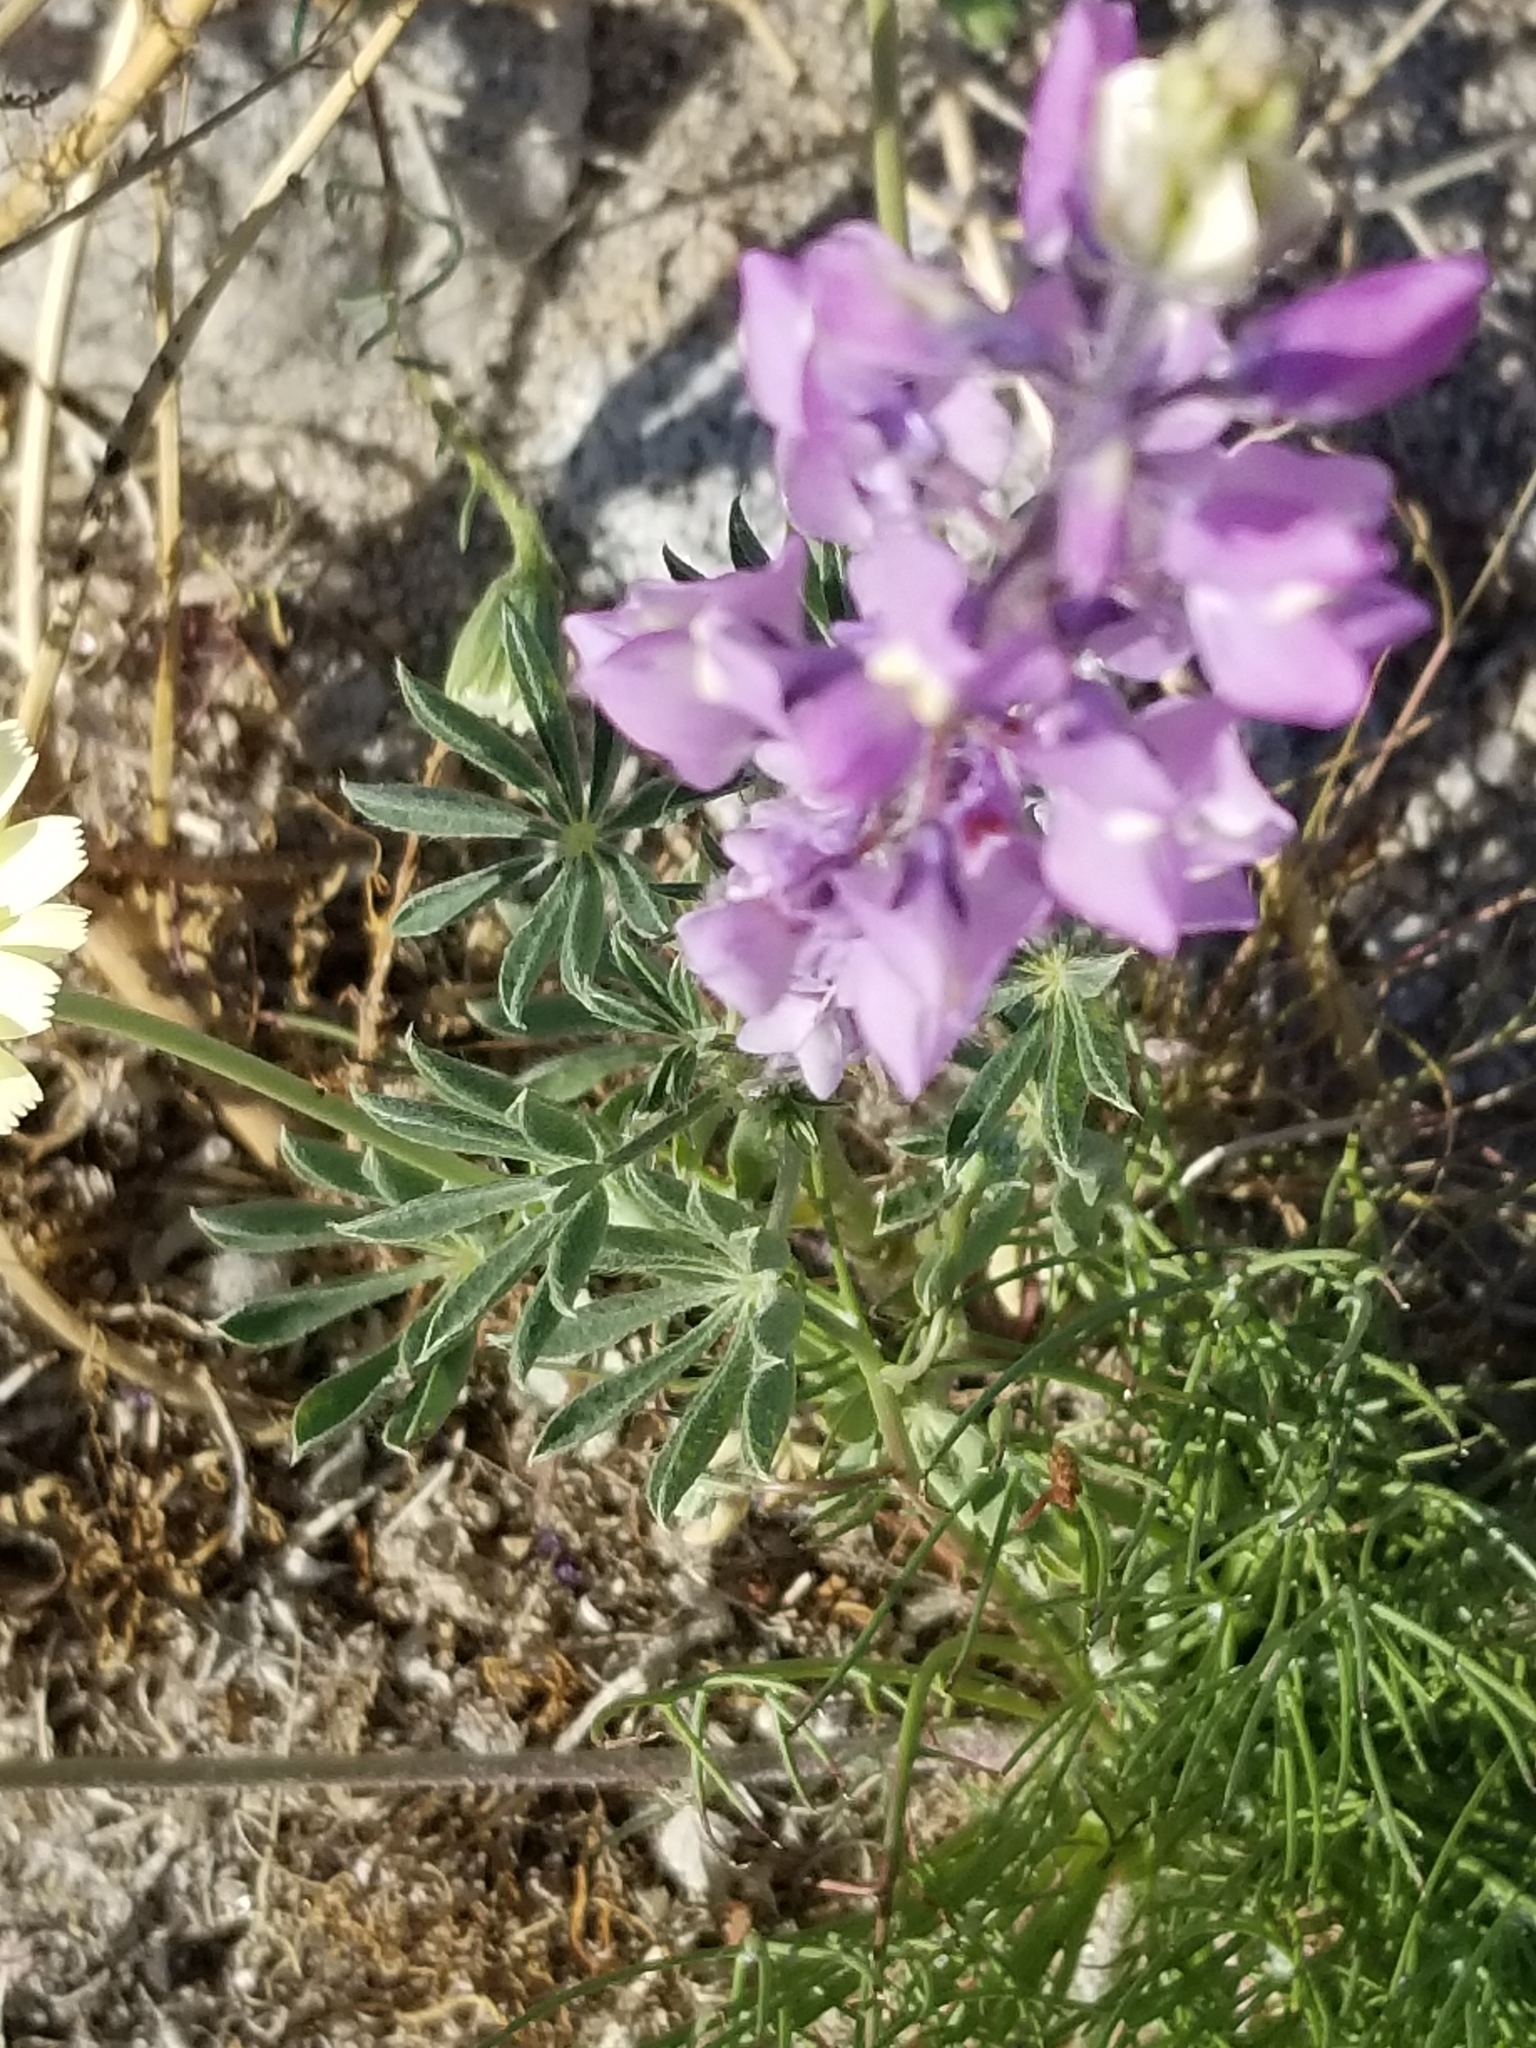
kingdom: Plantae
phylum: Tracheophyta
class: Magnoliopsida
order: Fabales
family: Fabaceae
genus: Lupinus
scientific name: Lupinus arizonicus
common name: Arizona lupine
